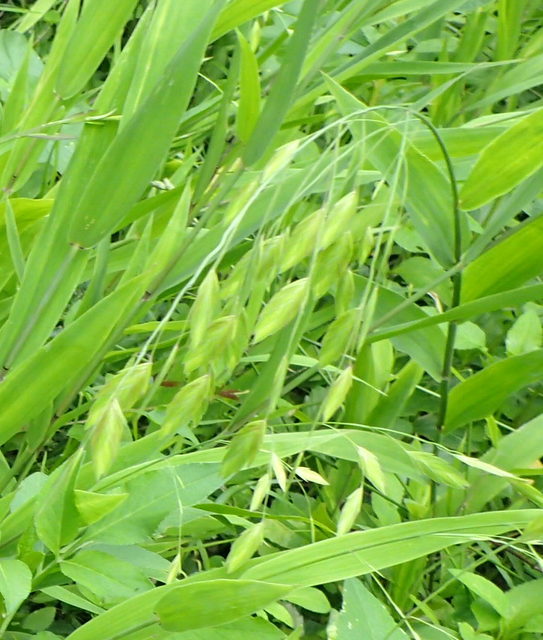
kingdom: Plantae
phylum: Tracheophyta
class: Liliopsida
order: Poales
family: Poaceae
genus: Chasmanthium
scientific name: Chasmanthium latifolium
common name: Broad-leaved chasmanthium
